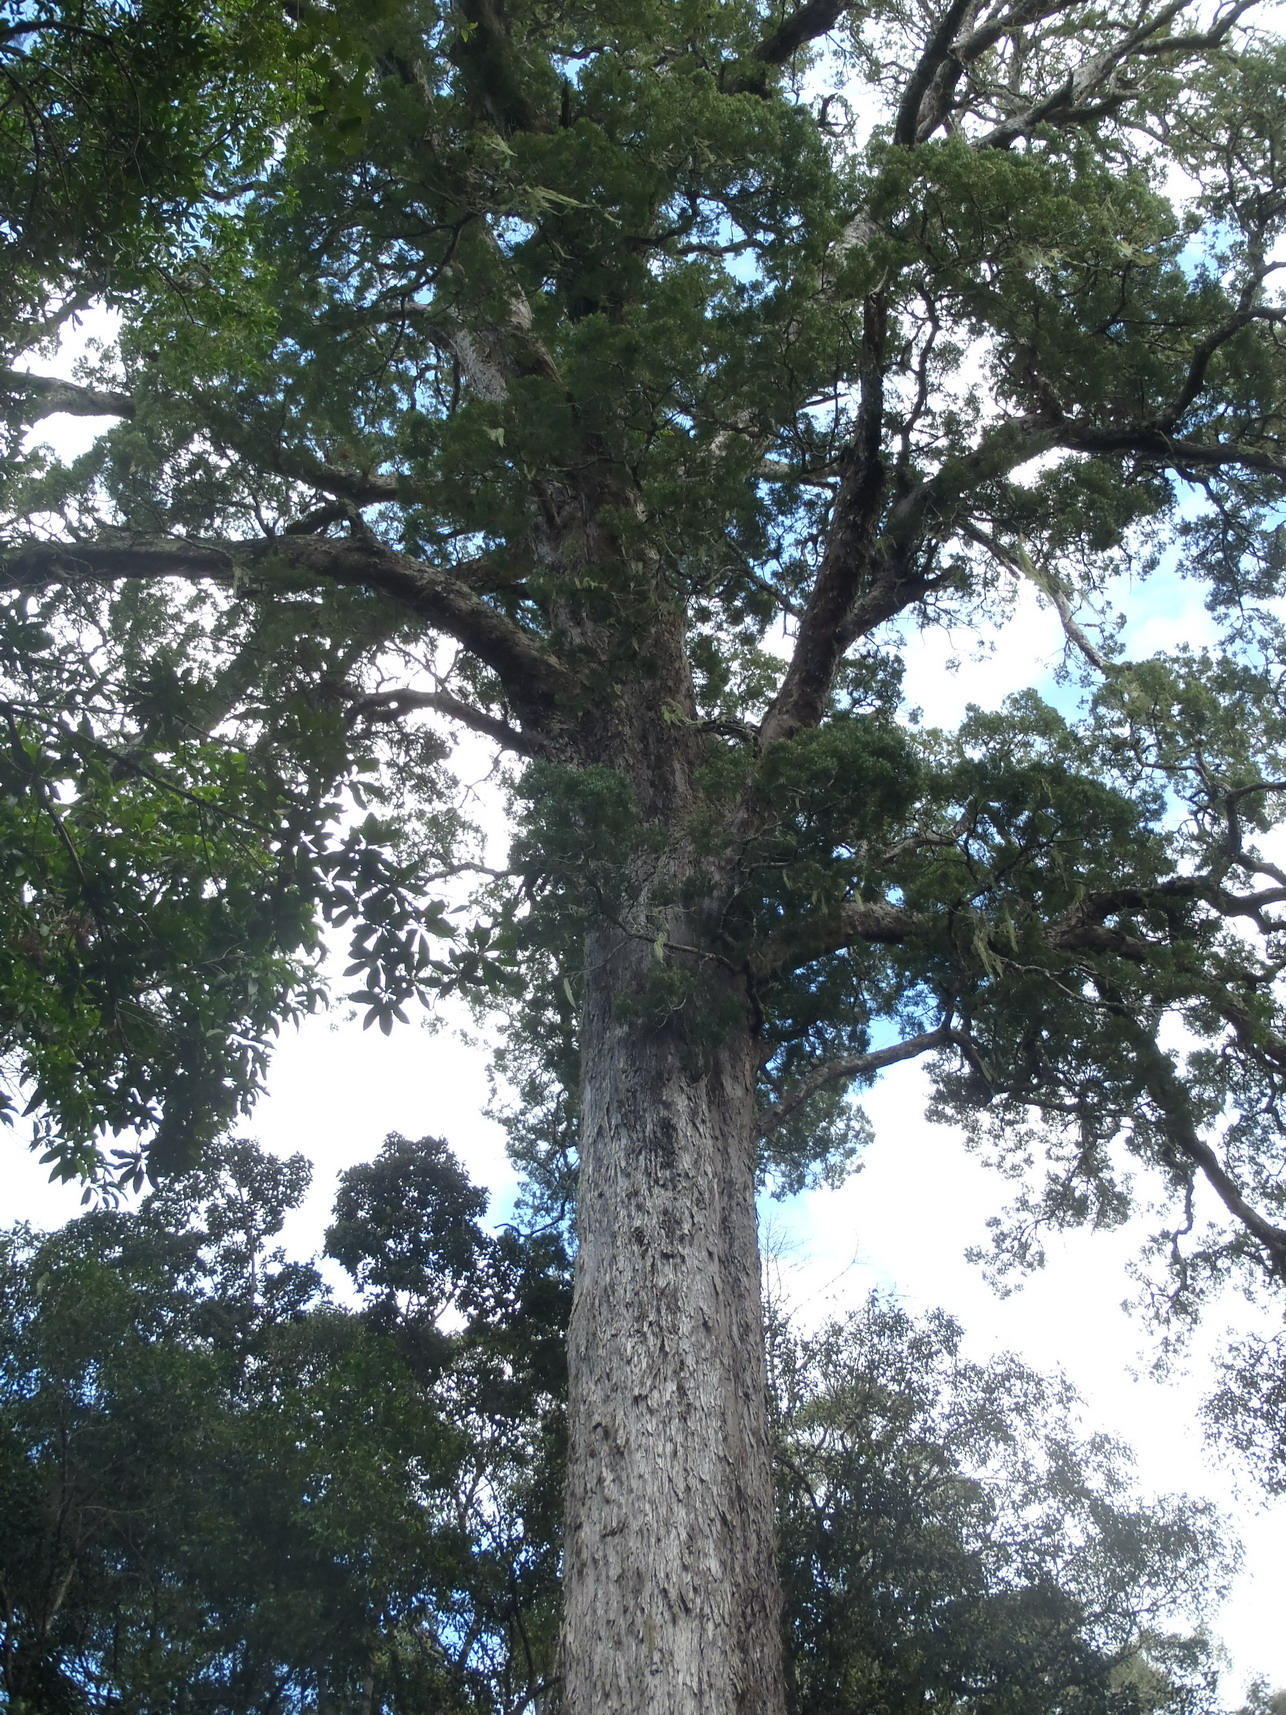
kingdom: Plantae
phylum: Tracheophyta
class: Pinopsida
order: Pinales
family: Podocarpaceae
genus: Afrocarpus
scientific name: Afrocarpus falcatus
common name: Bastard yellowwood
